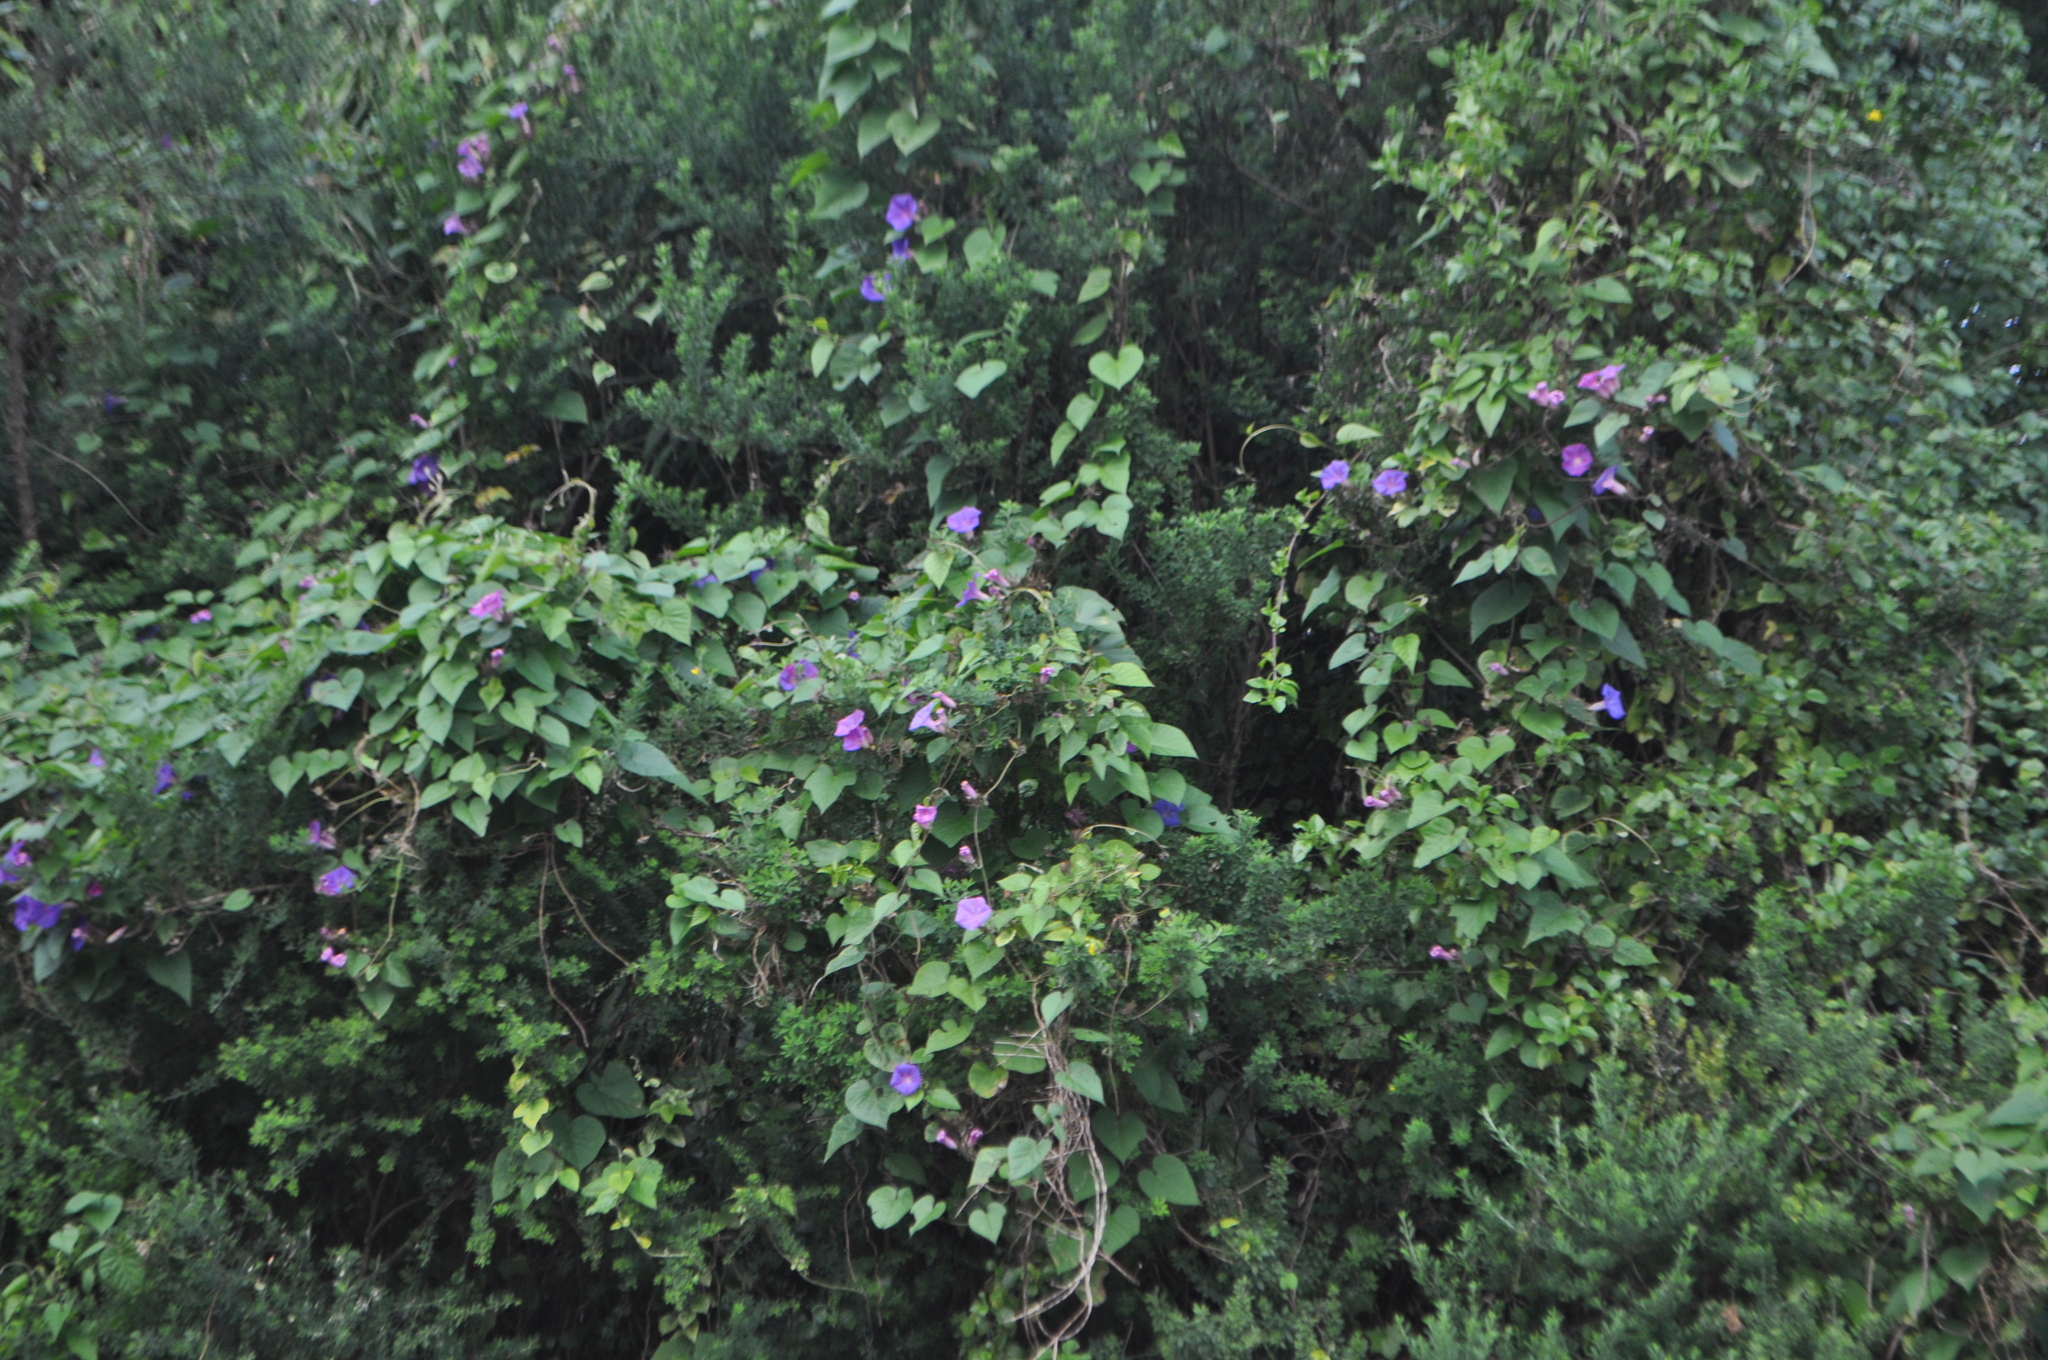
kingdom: Plantae
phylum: Tracheophyta
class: Magnoliopsida
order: Solanales
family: Convolvulaceae
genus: Ipomoea
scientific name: Ipomoea indica
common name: Blue dawnflower
